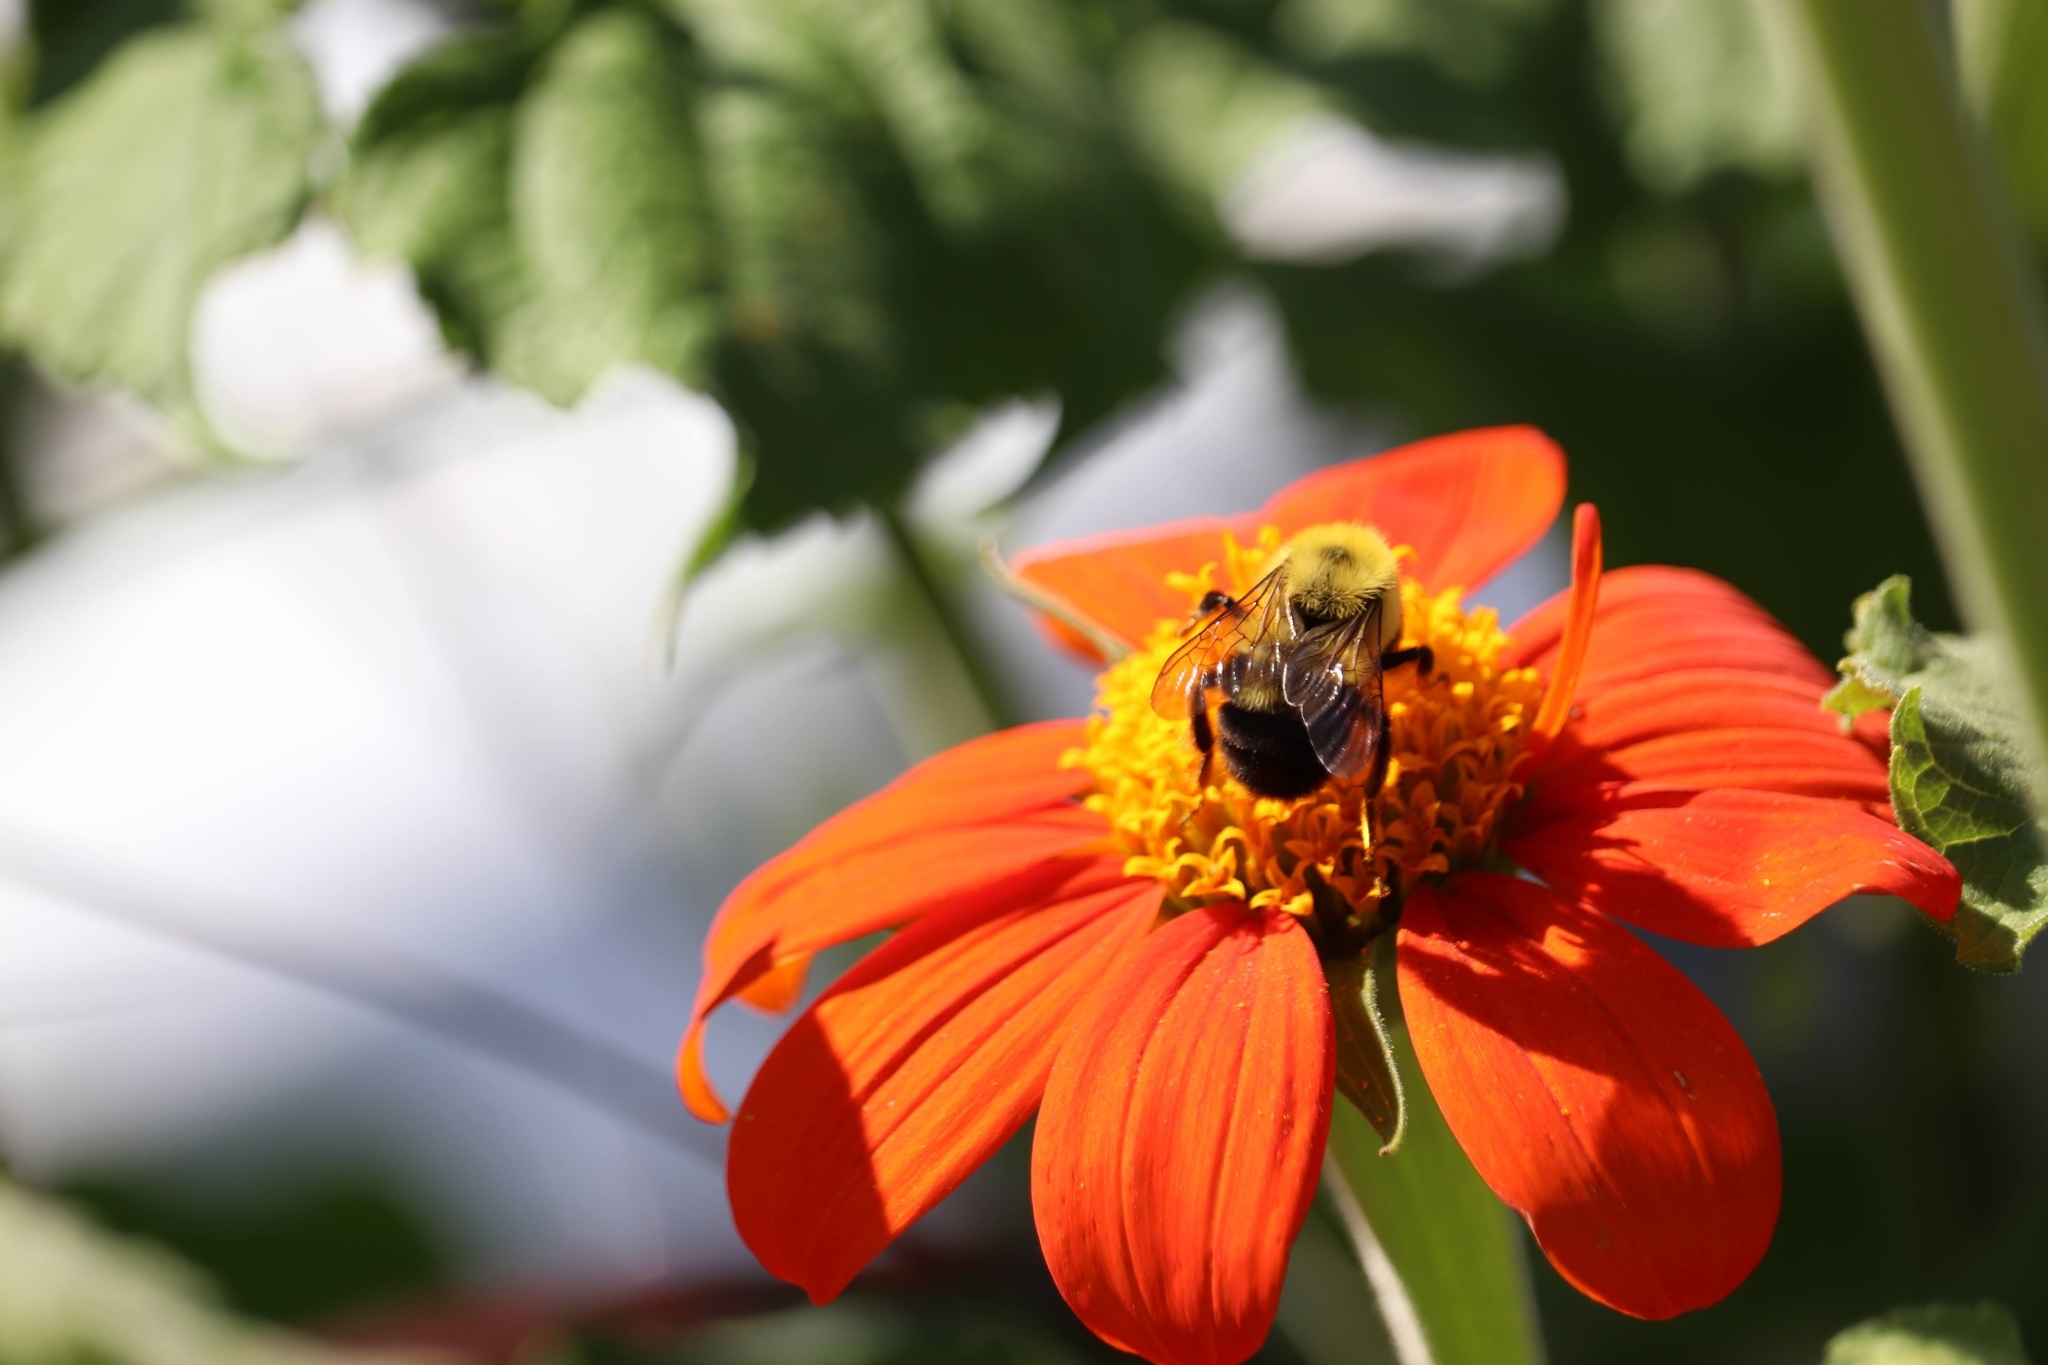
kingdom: Animalia
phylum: Arthropoda
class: Insecta
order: Hymenoptera
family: Apidae
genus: Bombus
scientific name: Bombus bimaculatus
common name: Two-spotted bumble bee
